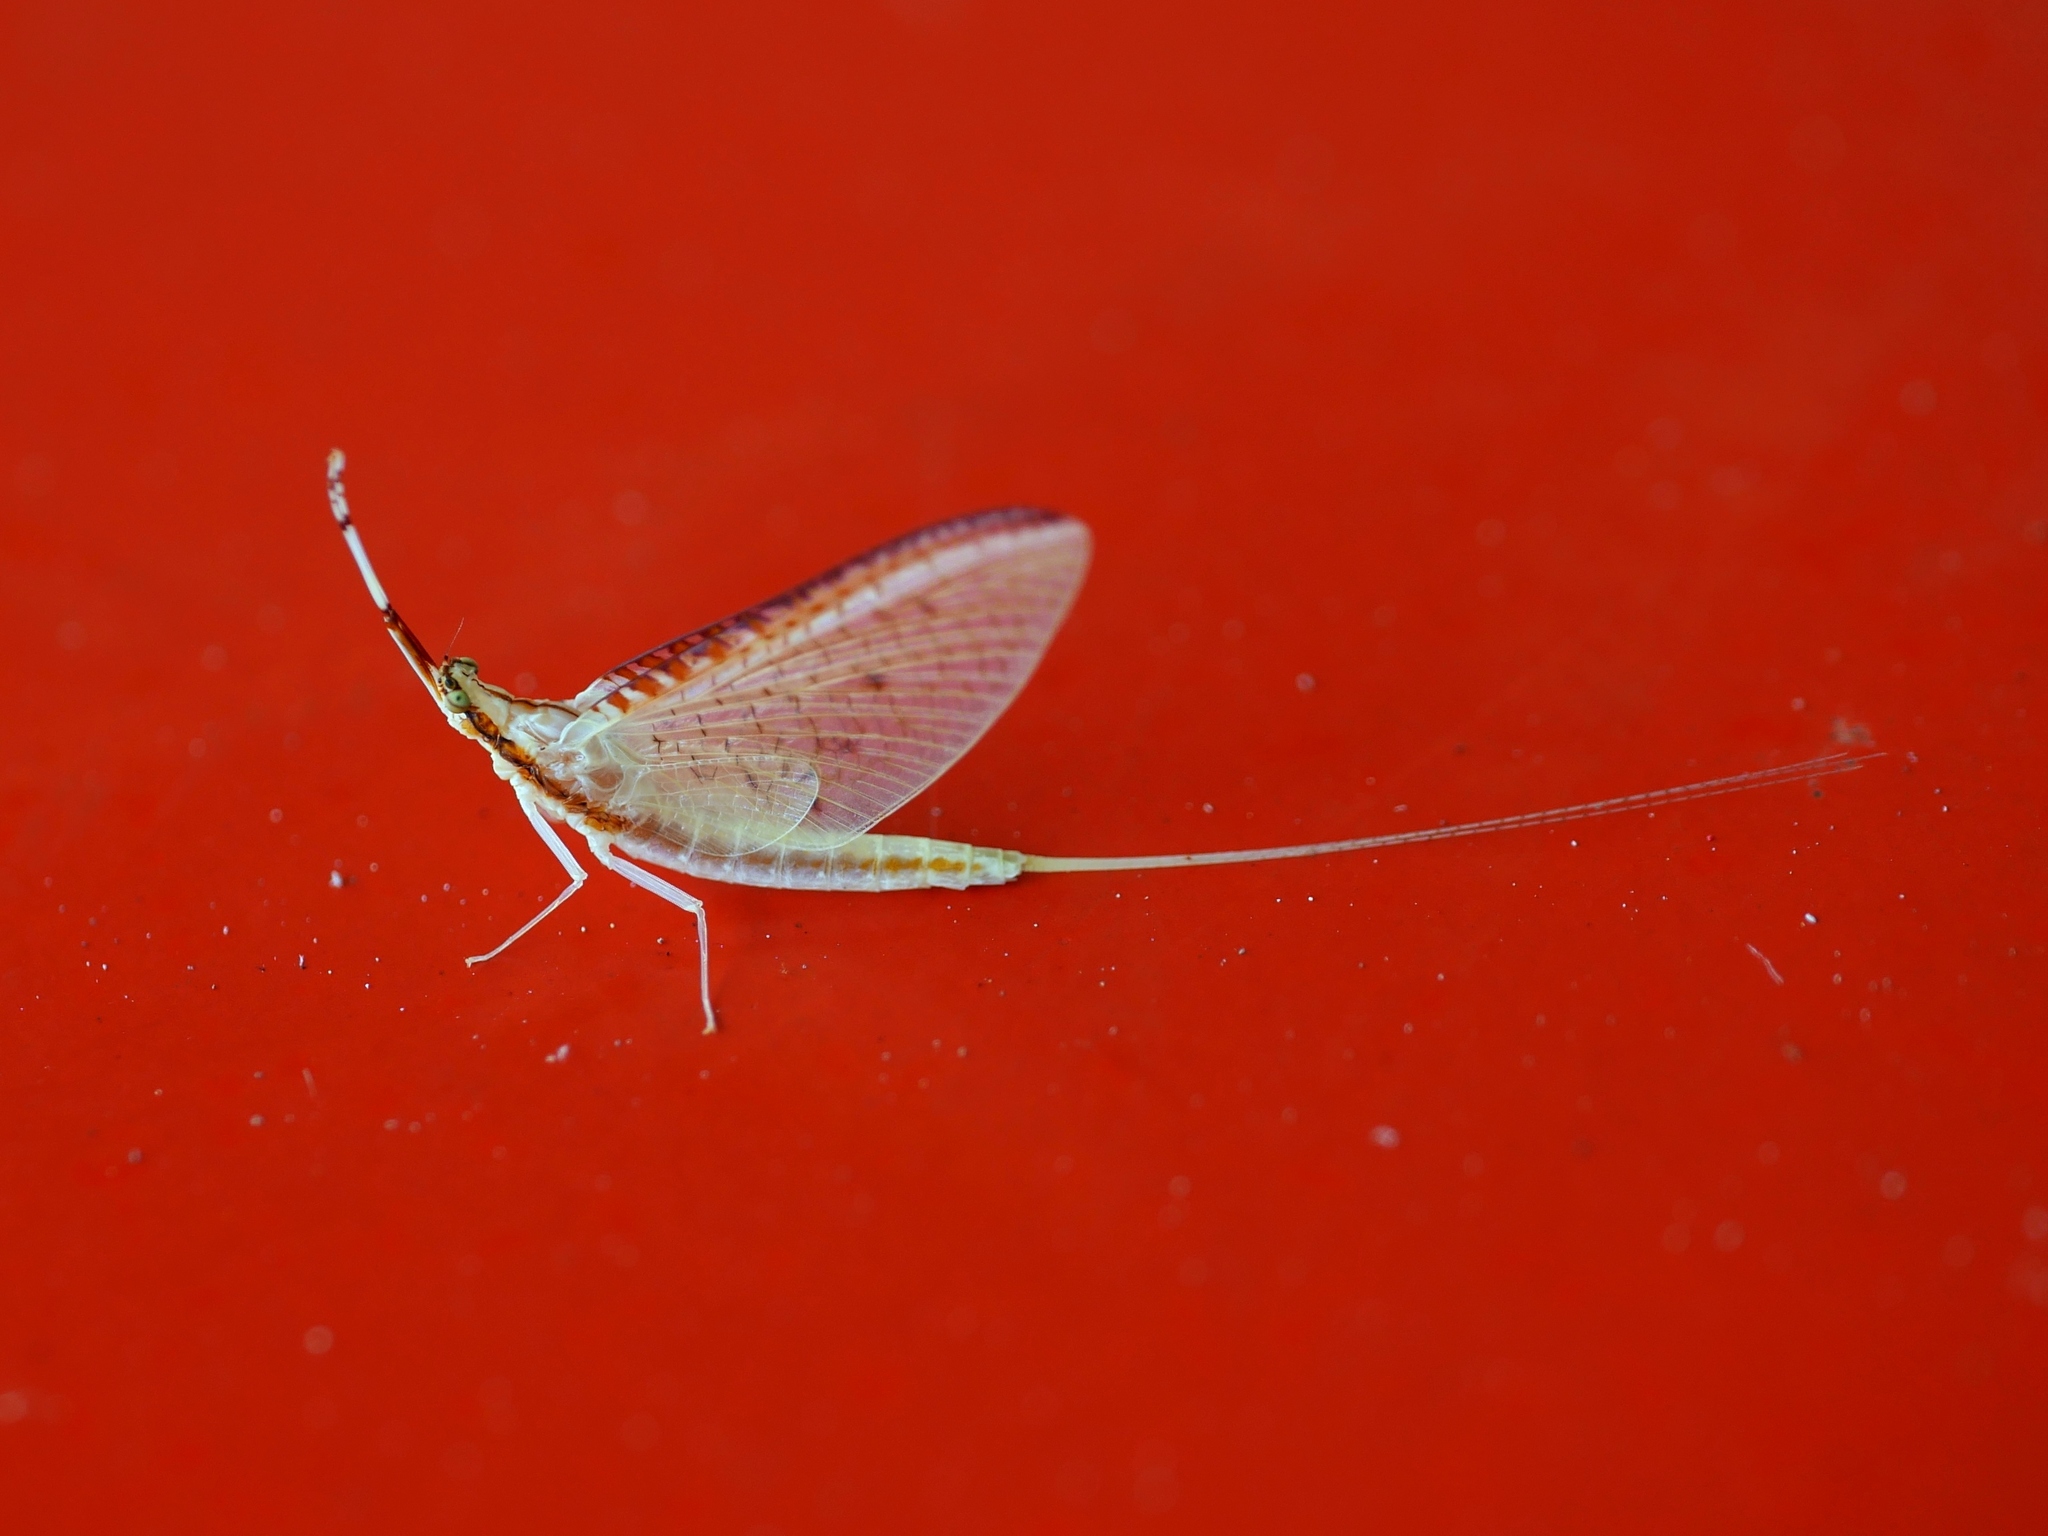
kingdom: Animalia
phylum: Arthropoda
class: Insecta
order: Ephemeroptera
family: Potamanthidae
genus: Potamanthus
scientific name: Potamanthus formosus
